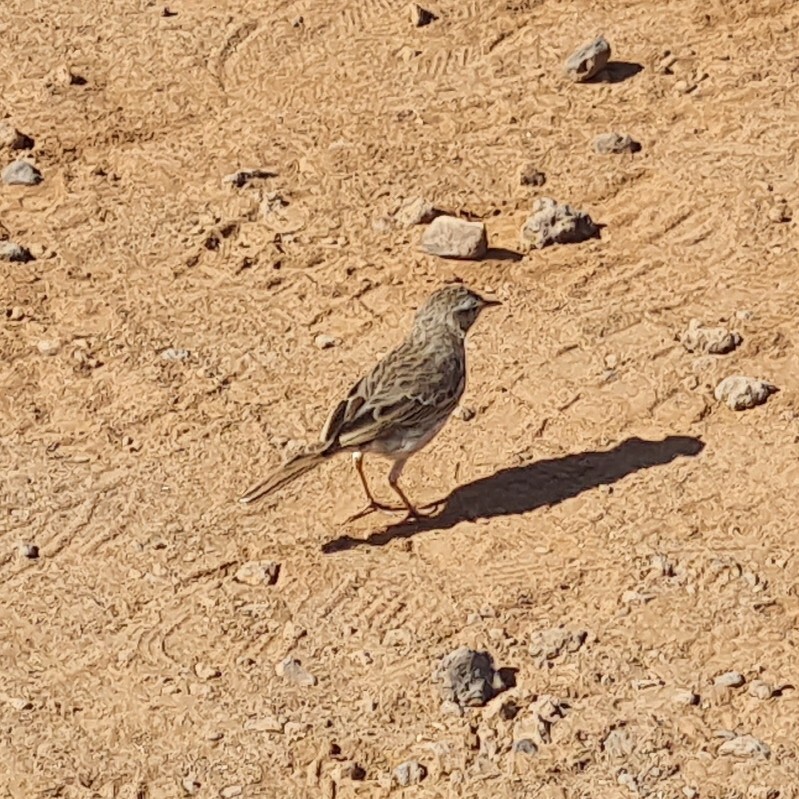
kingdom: Animalia
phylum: Chordata
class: Aves
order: Passeriformes
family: Motacillidae
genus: Anthus
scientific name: Anthus berthelotii
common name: Berthelot's pipit
